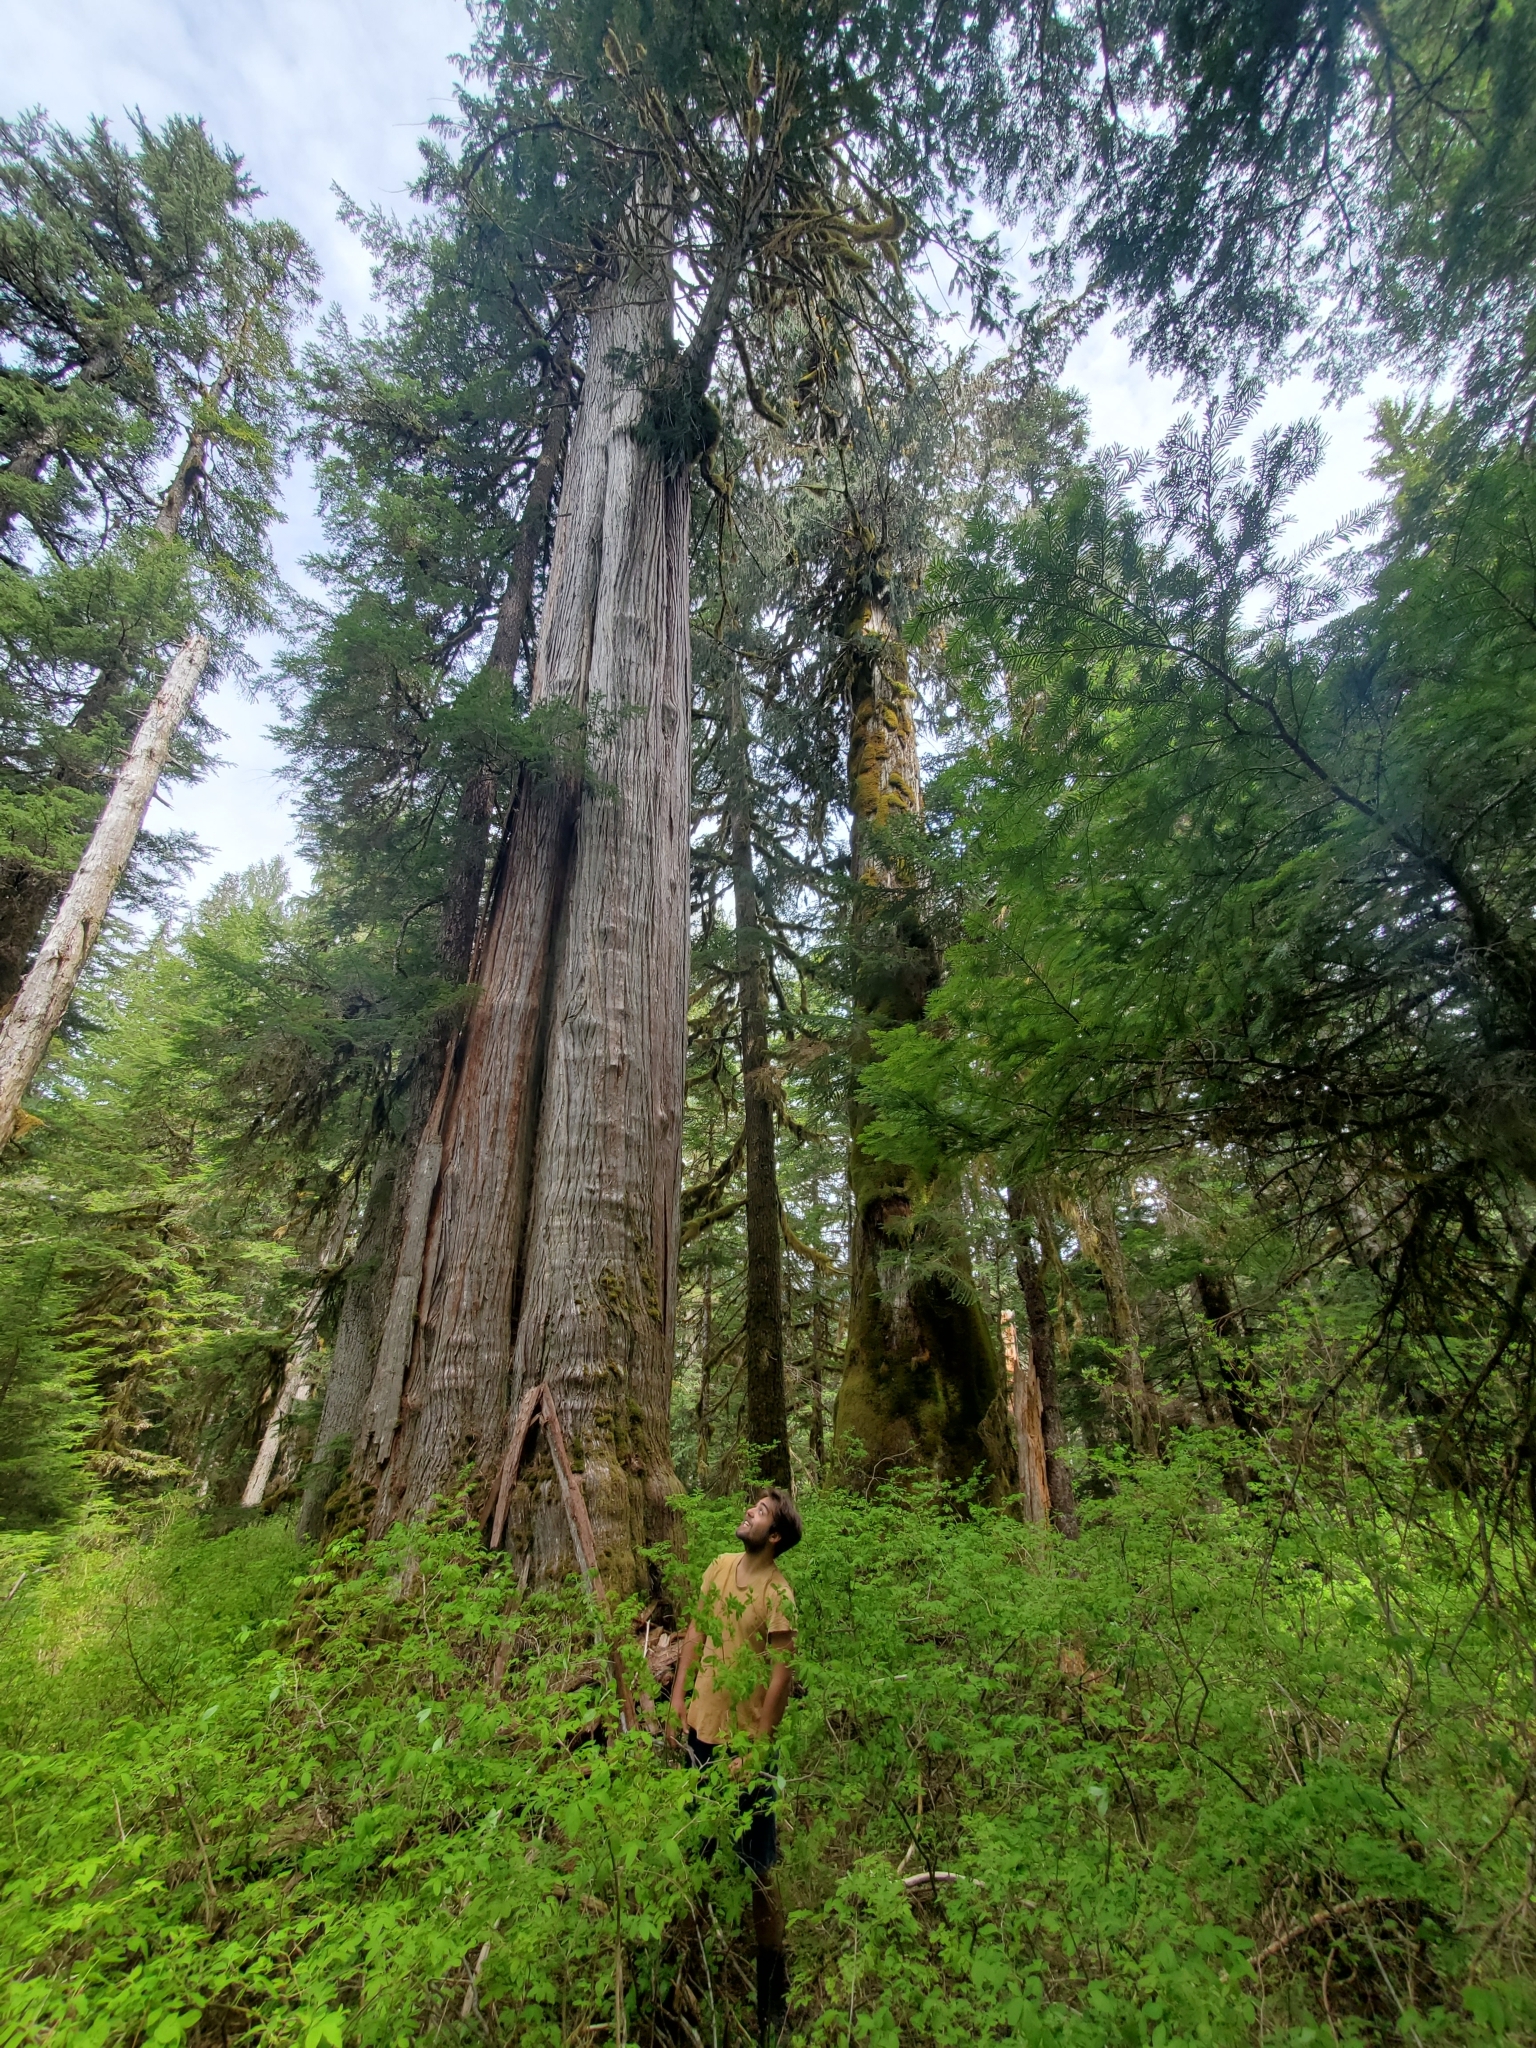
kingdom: Plantae
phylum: Tracheophyta
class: Pinopsida
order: Pinales
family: Cupressaceae
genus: Thuja
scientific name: Thuja plicata
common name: Western red-cedar
